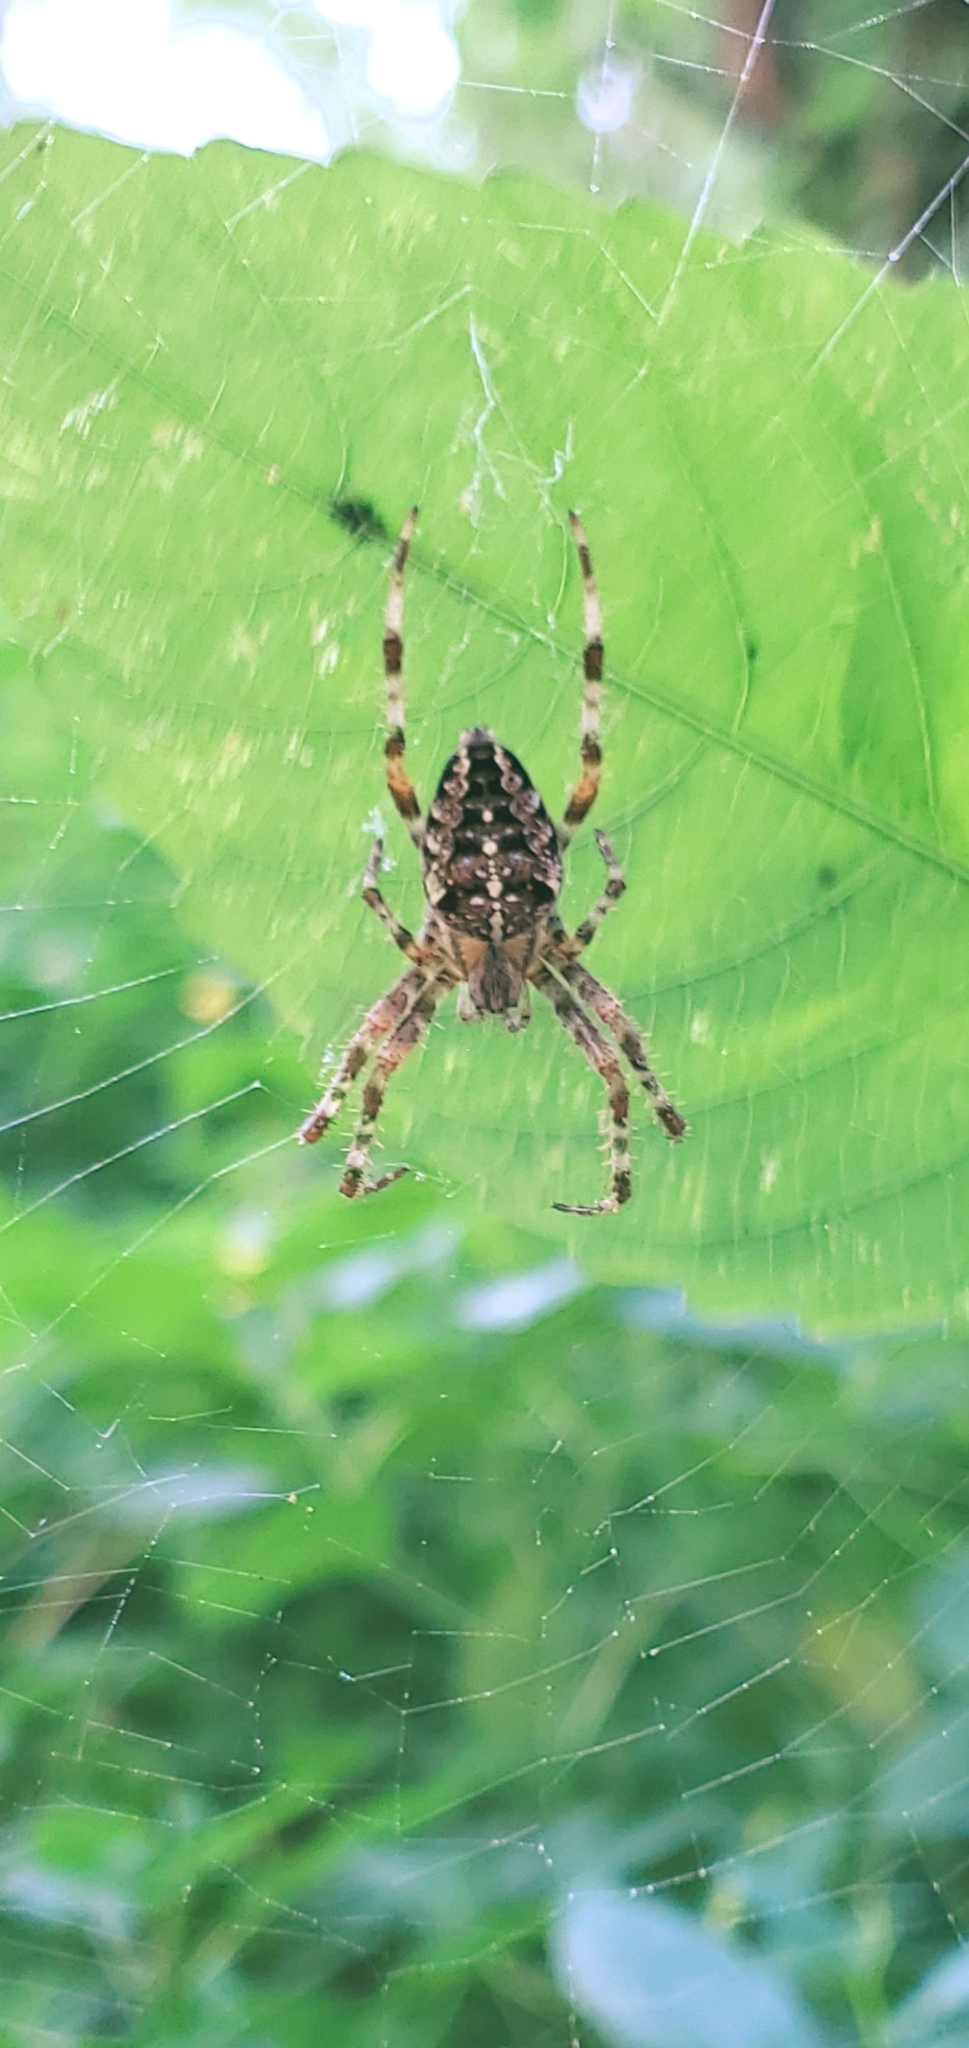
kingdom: Animalia
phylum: Arthropoda
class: Arachnida
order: Araneae
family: Araneidae
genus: Araneus
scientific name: Araneus diadematus
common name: Cross orbweaver
